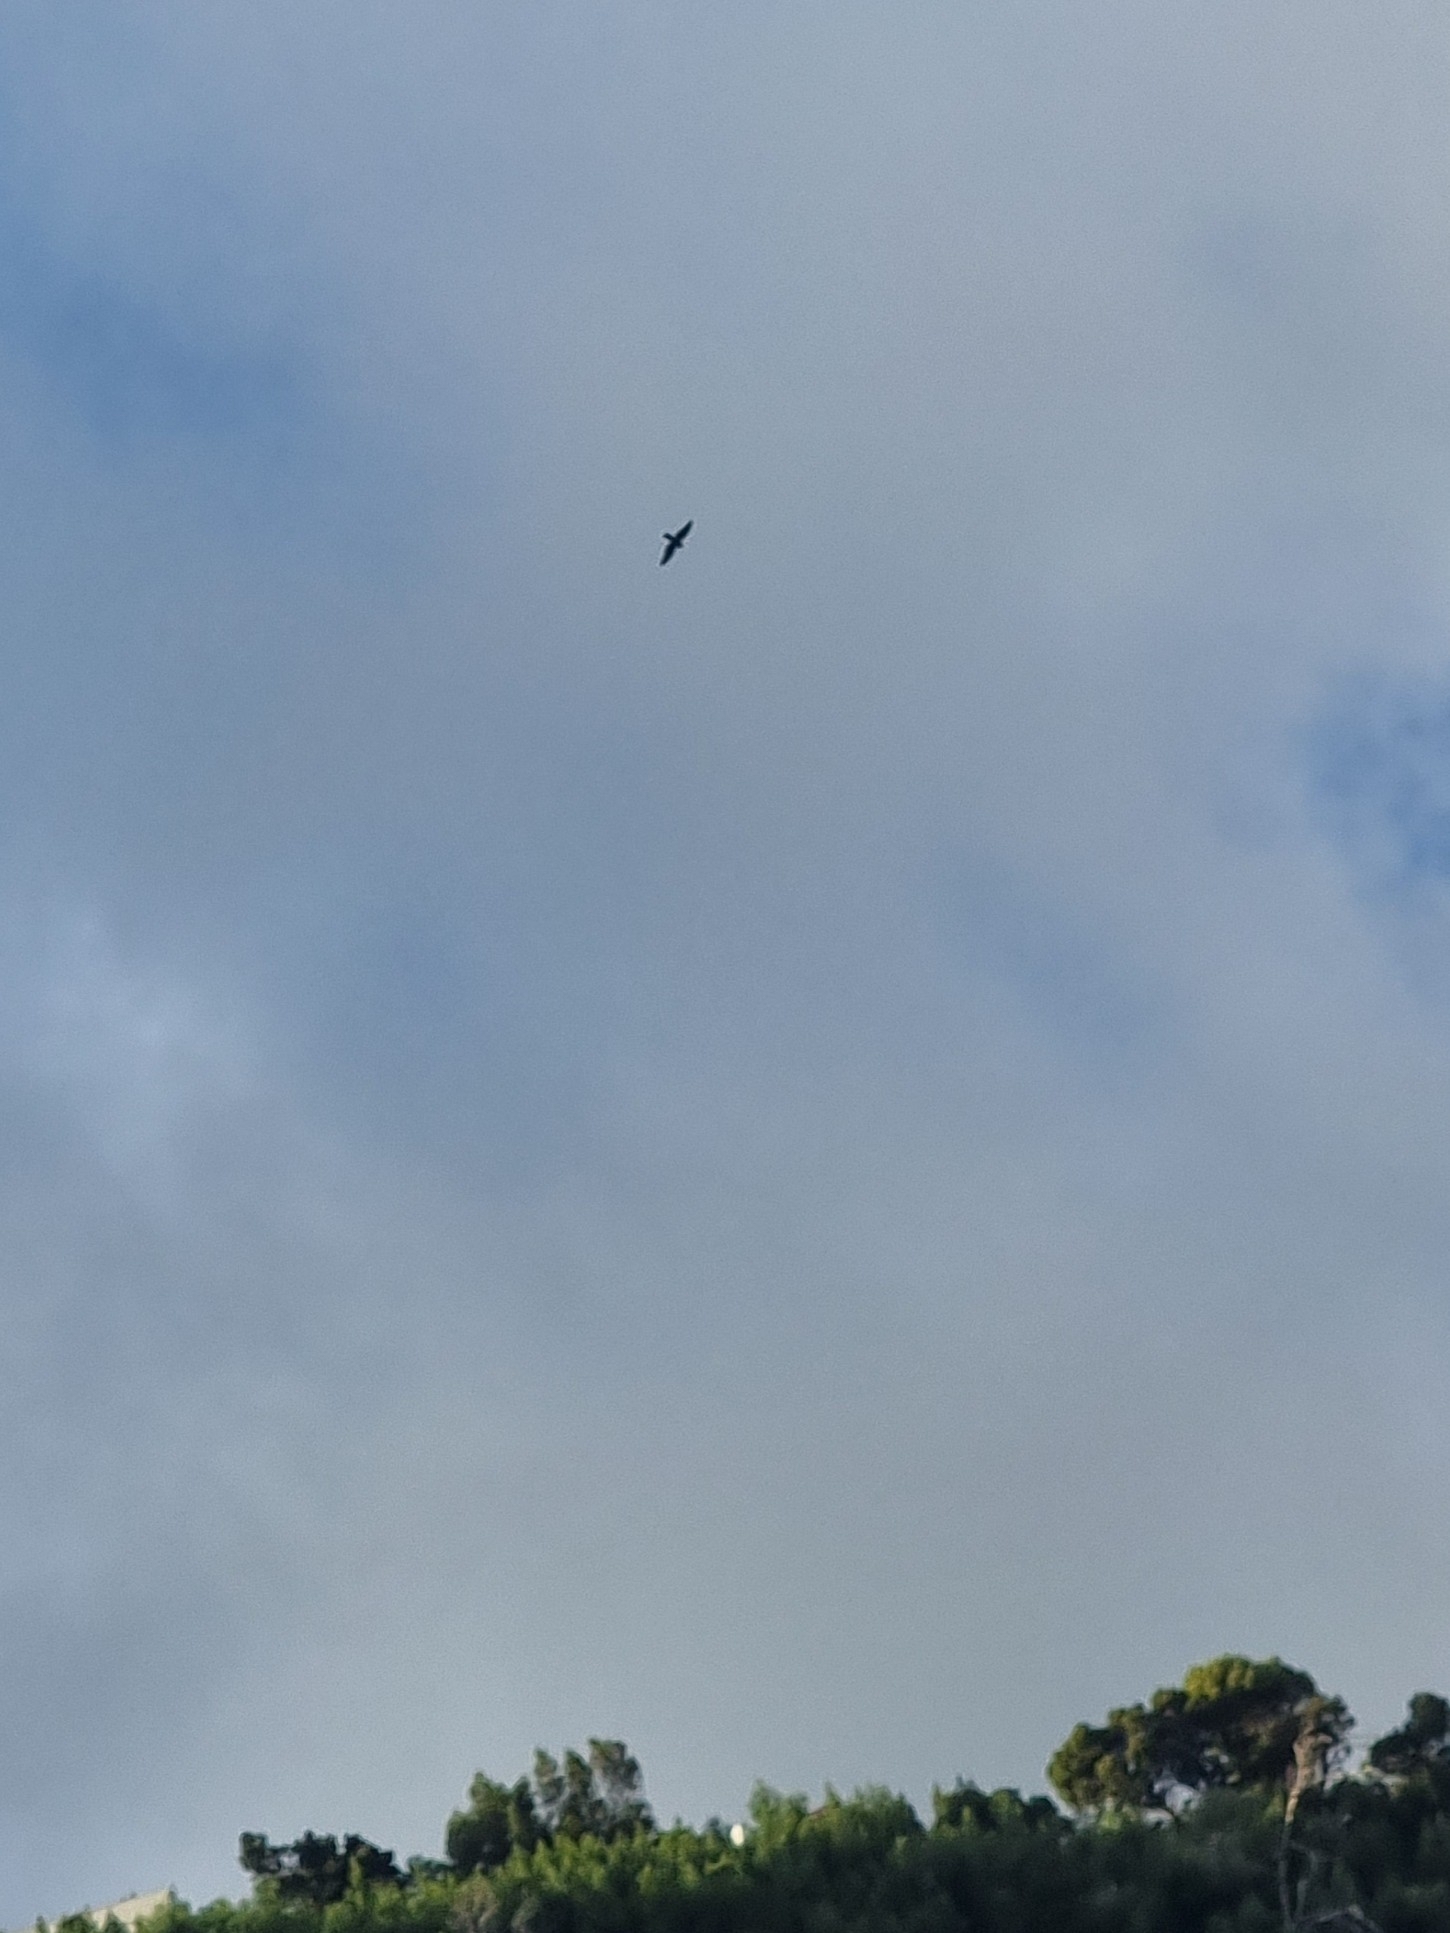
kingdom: Animalia
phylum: Chordata
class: Aves
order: Accipitriformes
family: Accipitridae
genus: Accipiter
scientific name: Accipiter nisus
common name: Eurasian sparrowhawk
